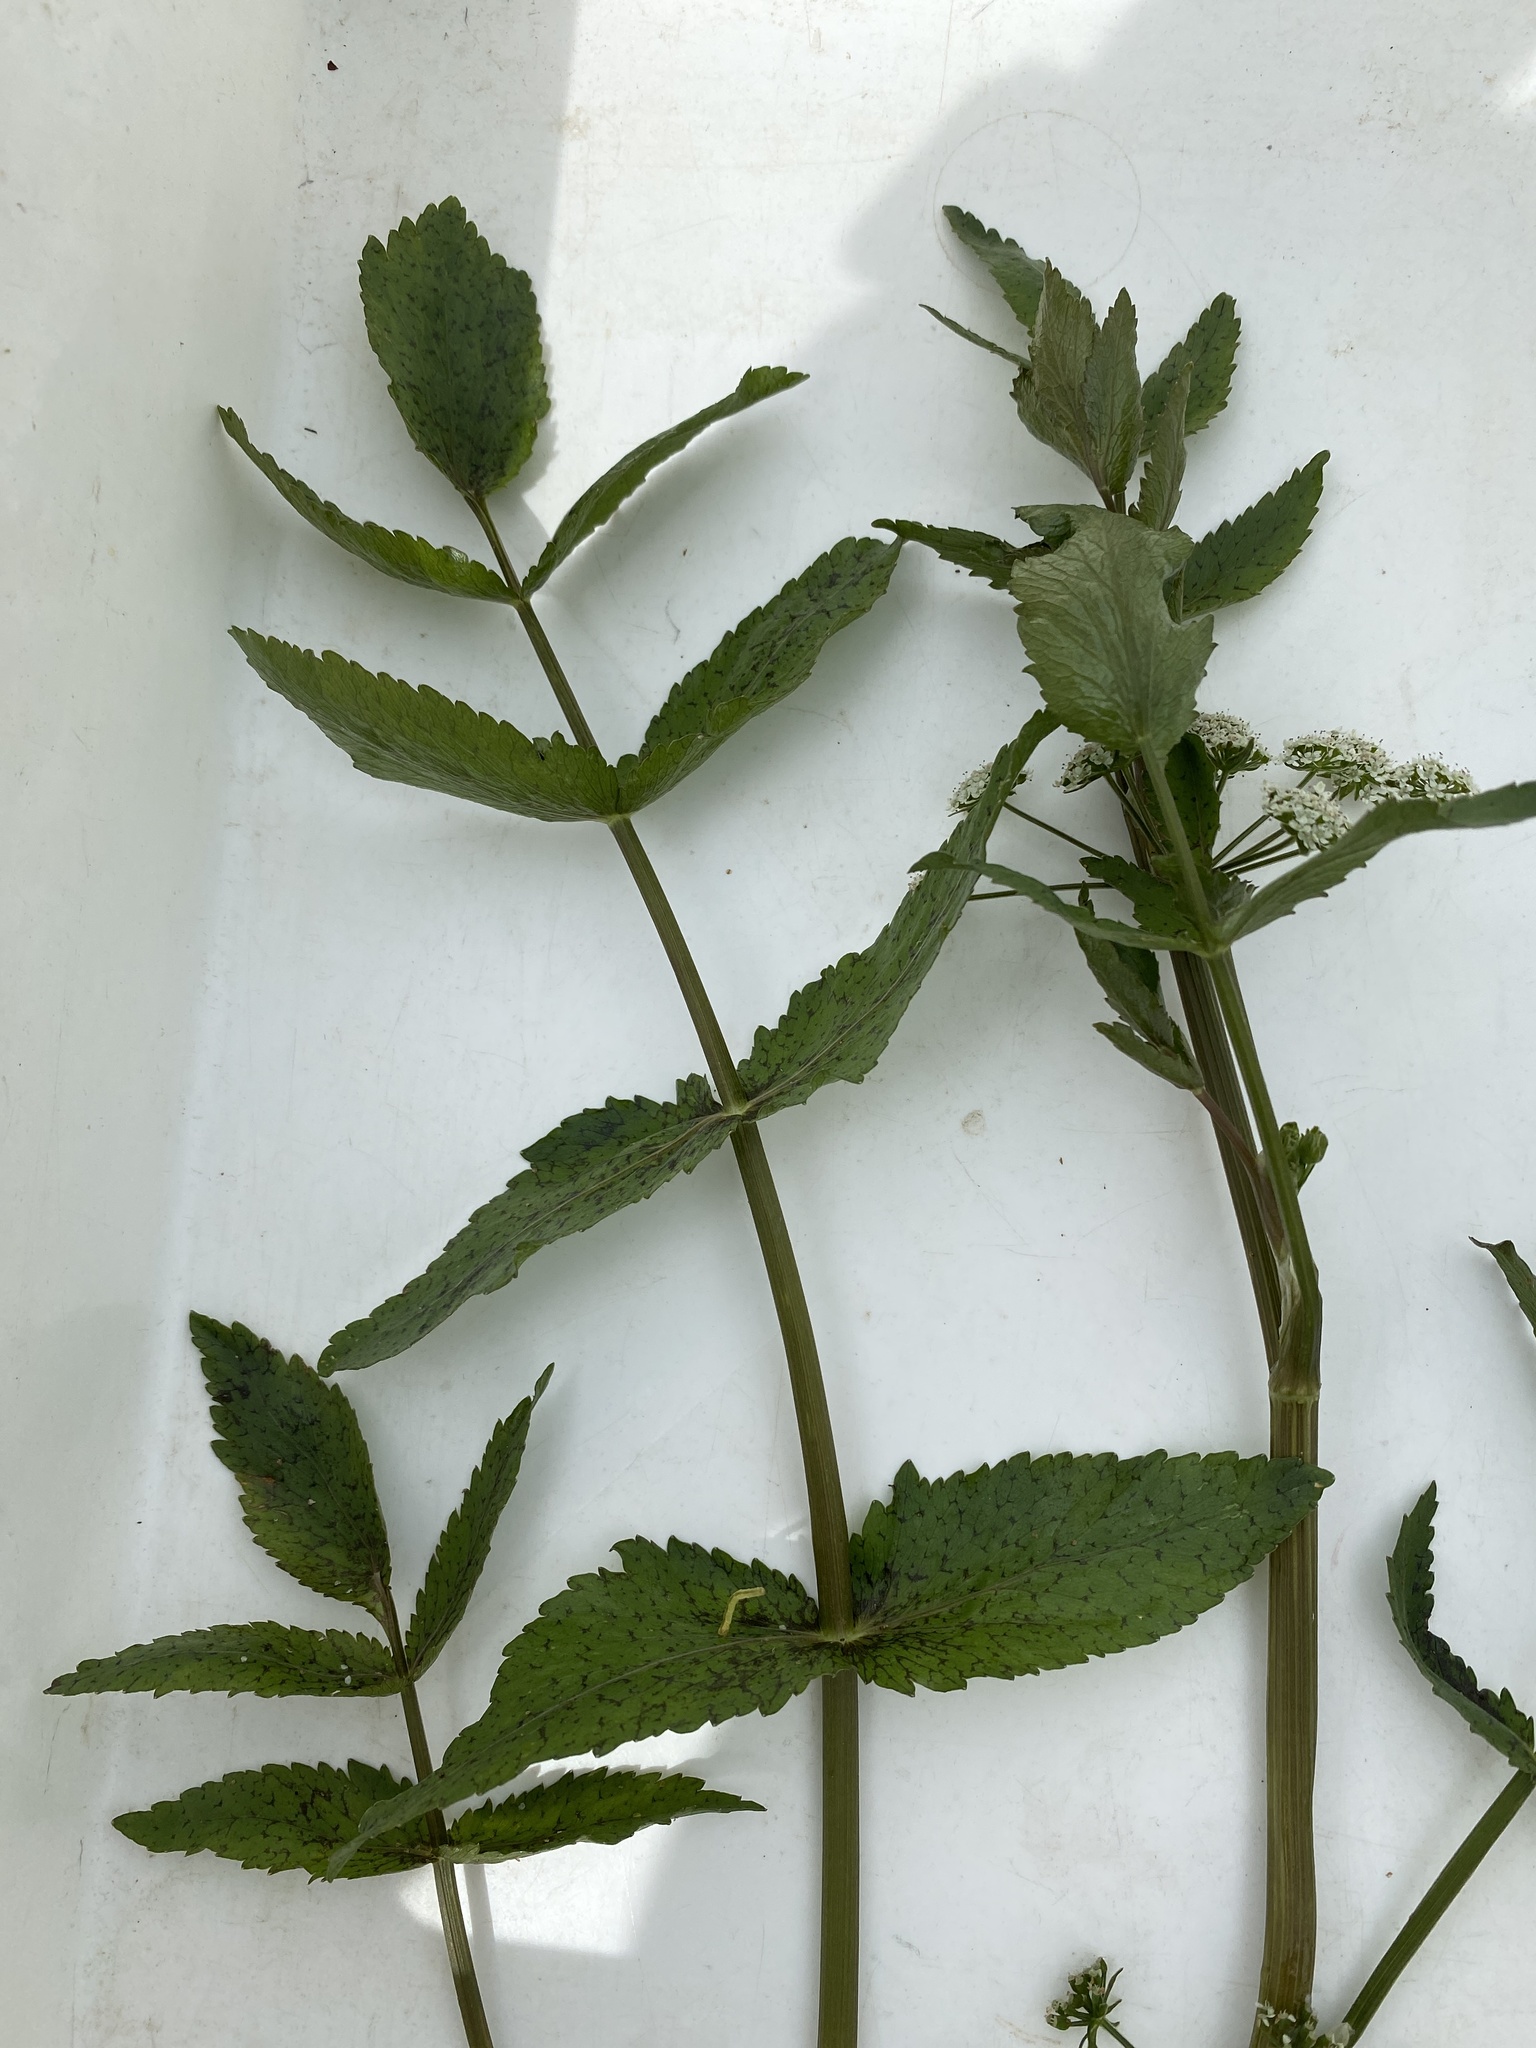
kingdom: Plantae
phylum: Tracheophyta
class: Magnoliopsida
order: Apiales
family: Apiaceae
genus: Helosciadium
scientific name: Helosciadium nodiflorum
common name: Fool's-watercress
